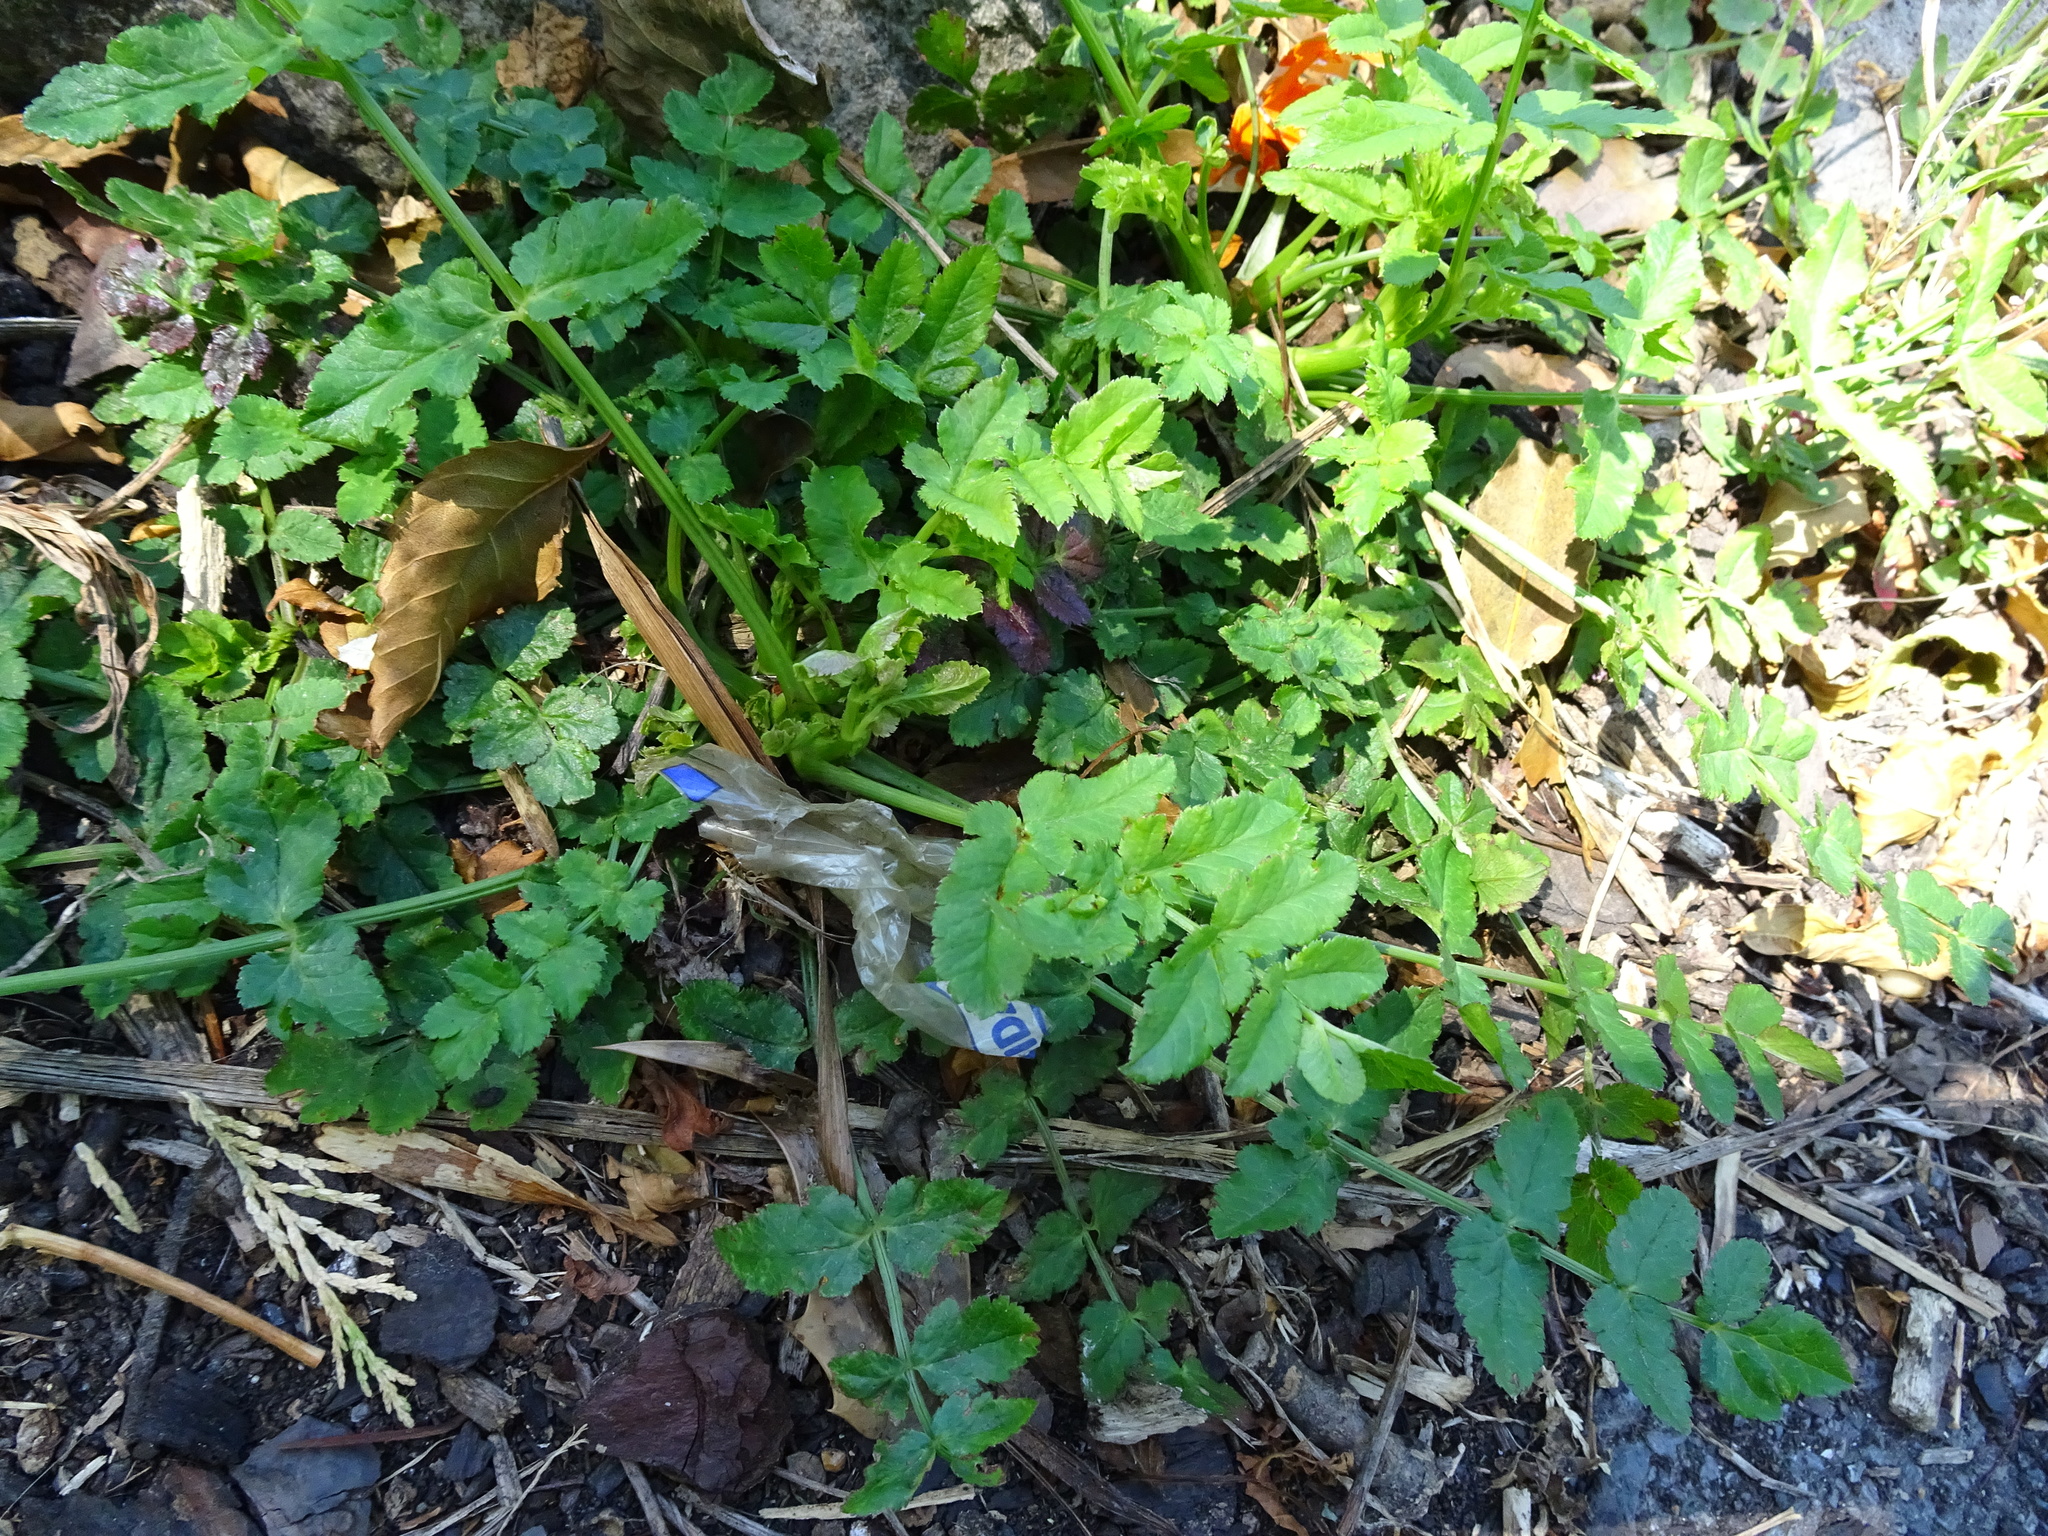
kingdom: Plantae
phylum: Tracheophyta
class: Magnoliopsida
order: Apiales
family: Apiaceae
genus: Pastinaca
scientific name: Pastinaca sativa
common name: Wild parsnip
